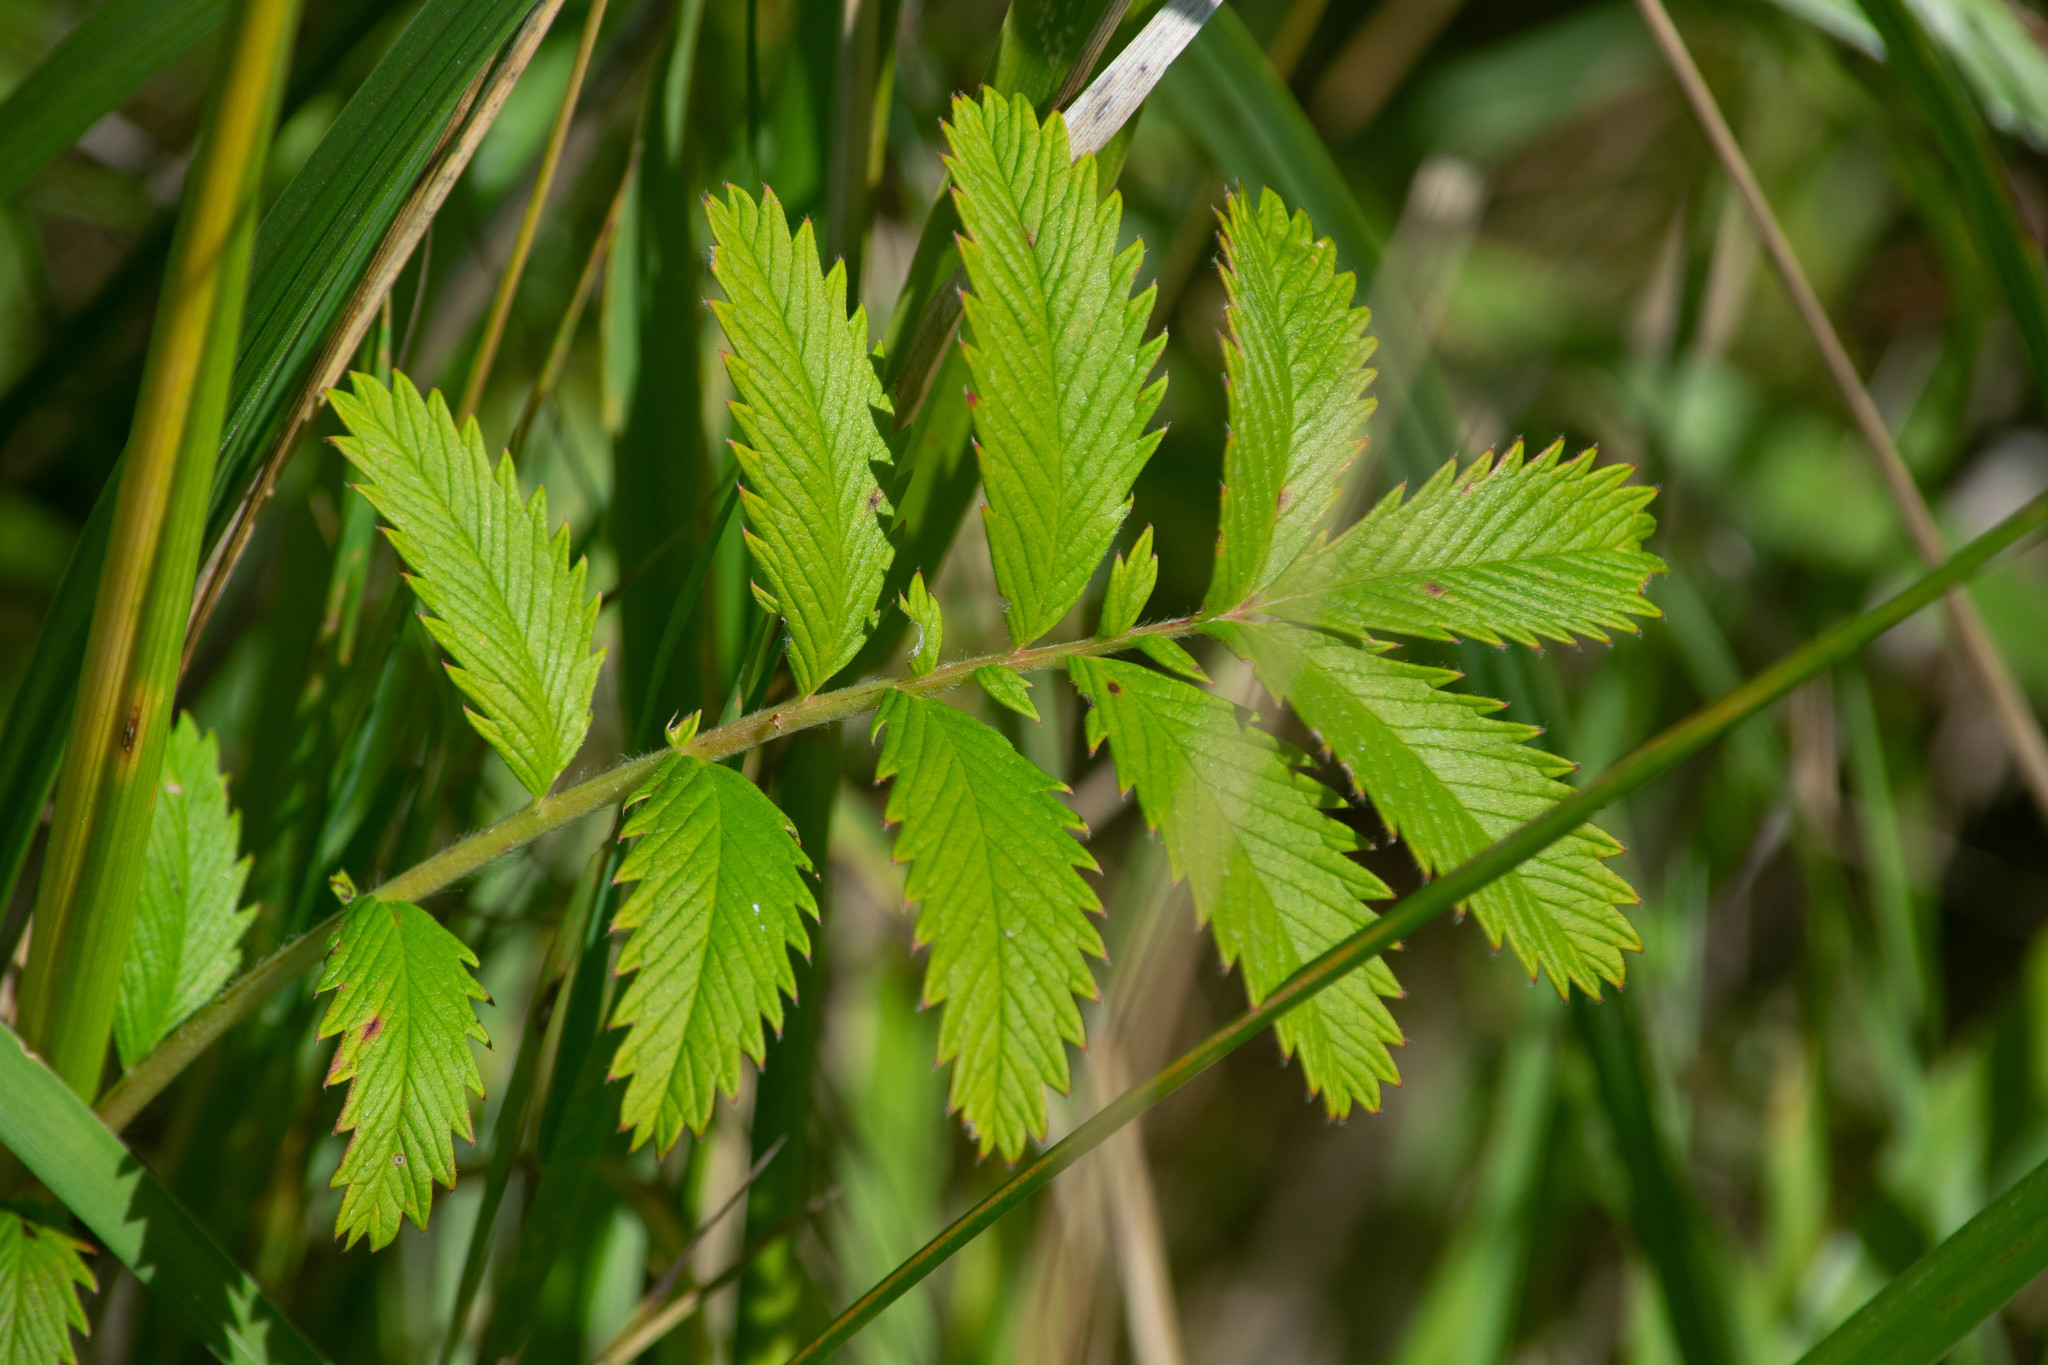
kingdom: Plantae
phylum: Tracheophyta
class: Magnoliopsida
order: Rosales
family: Rosaceae
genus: Argentina
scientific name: Argentina anserina
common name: Common silverweed
